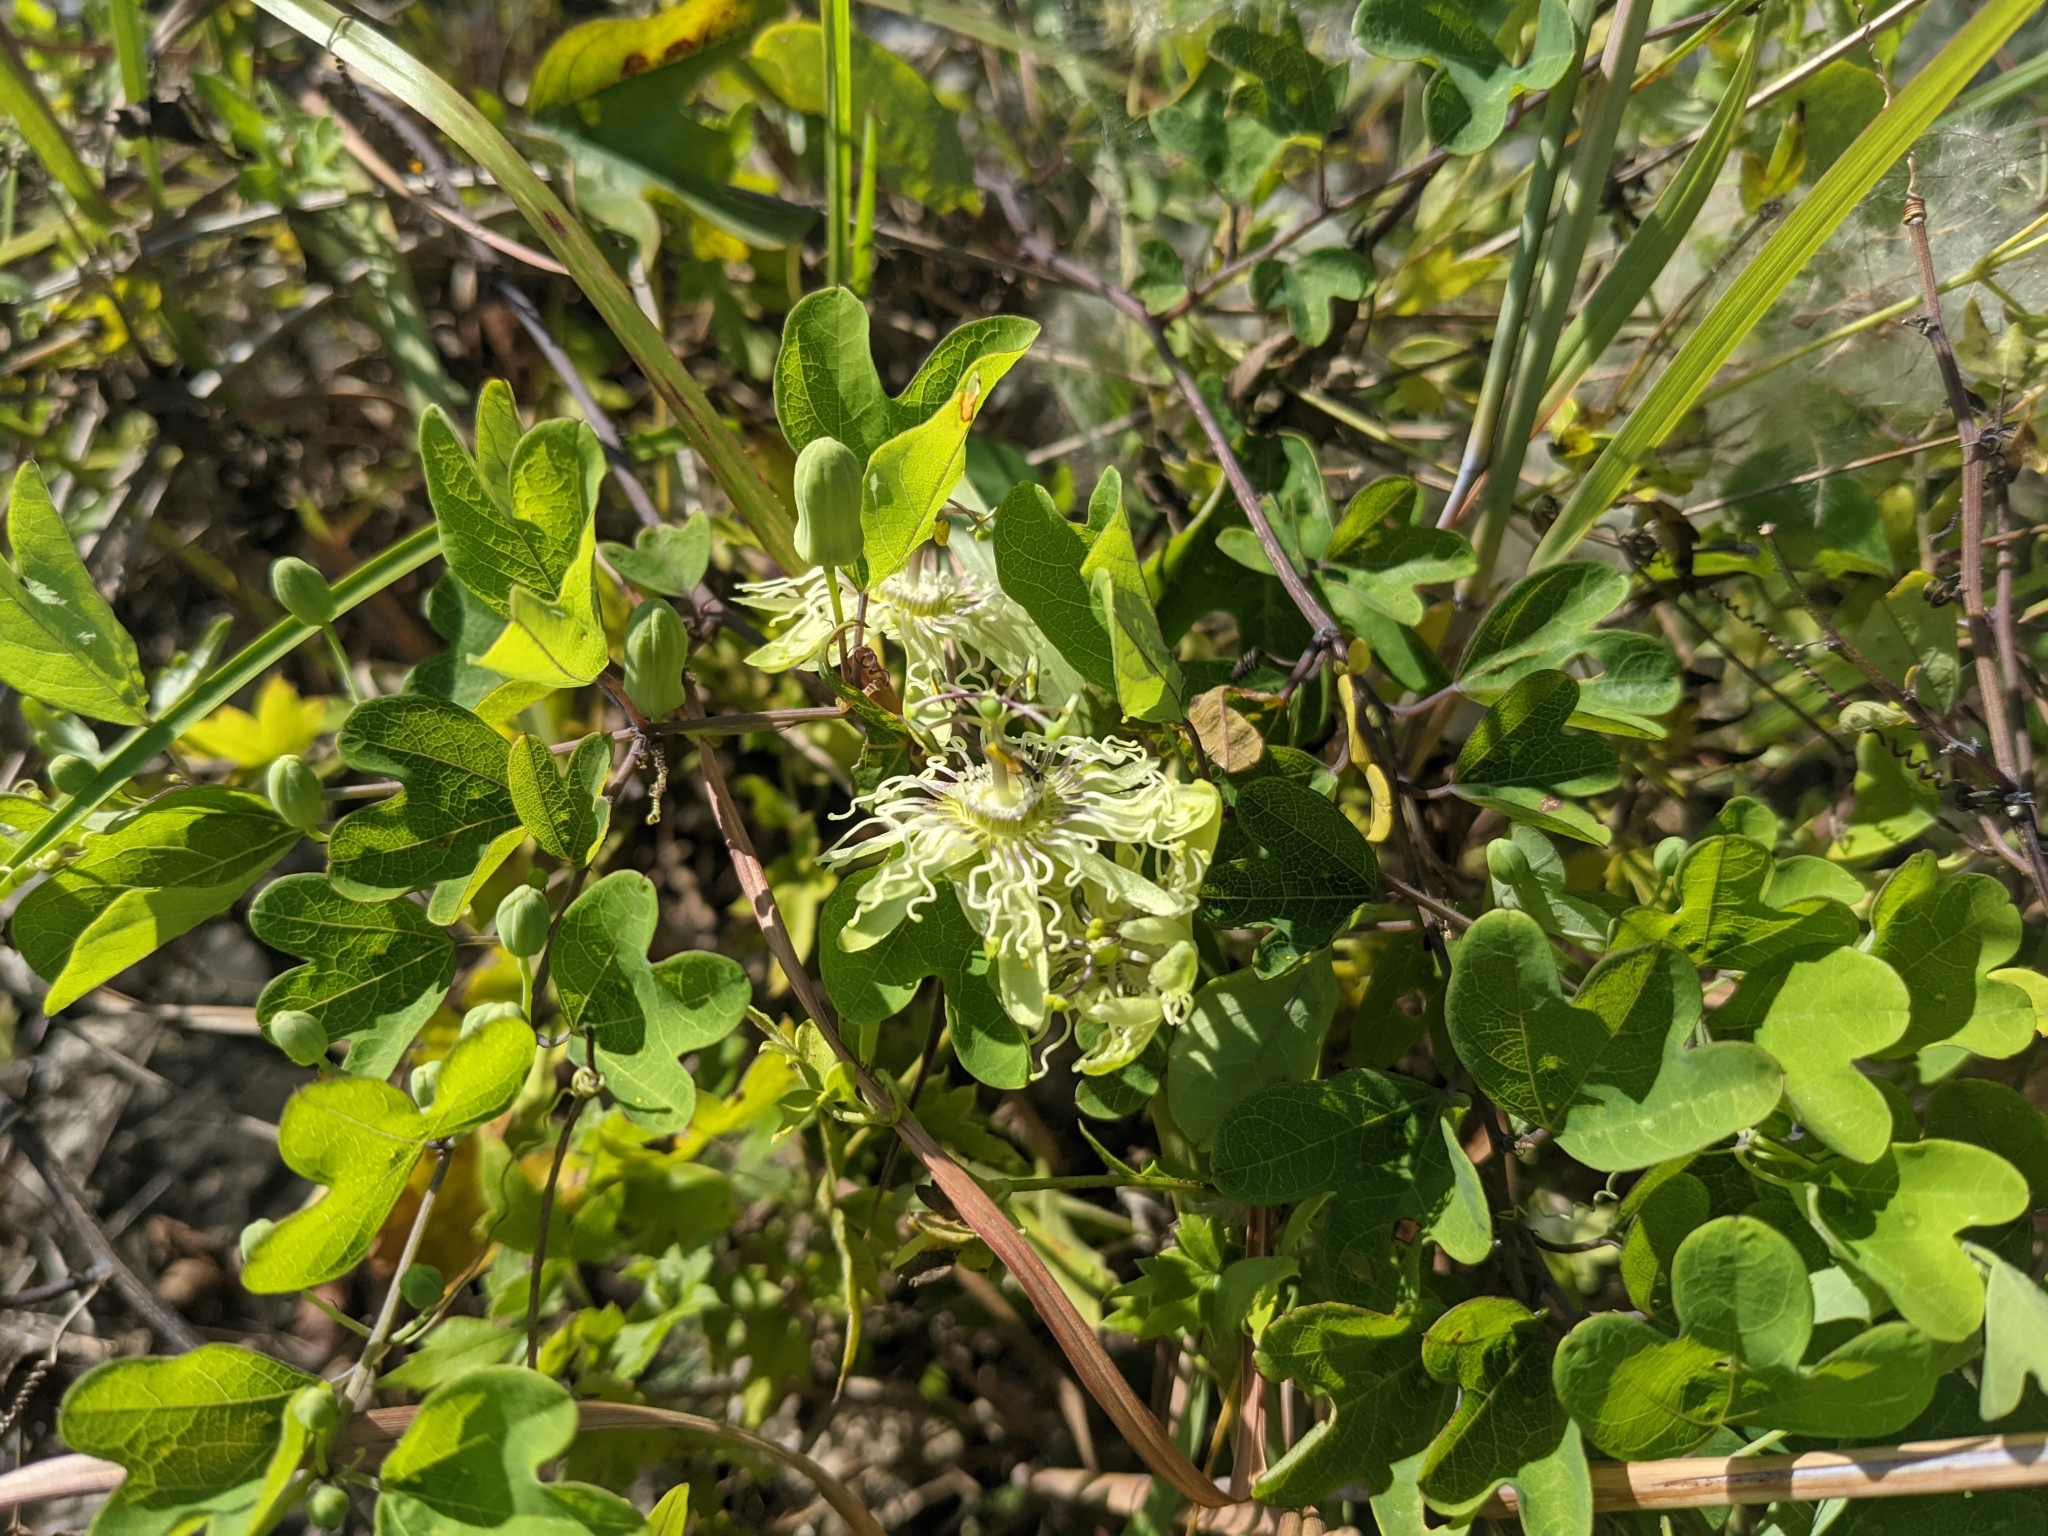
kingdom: Plantae
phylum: Tracheophyta
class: Magnoliopsida
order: Malpighiales
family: Passifloraceae
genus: Passiflora
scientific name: Passiflora affinis
